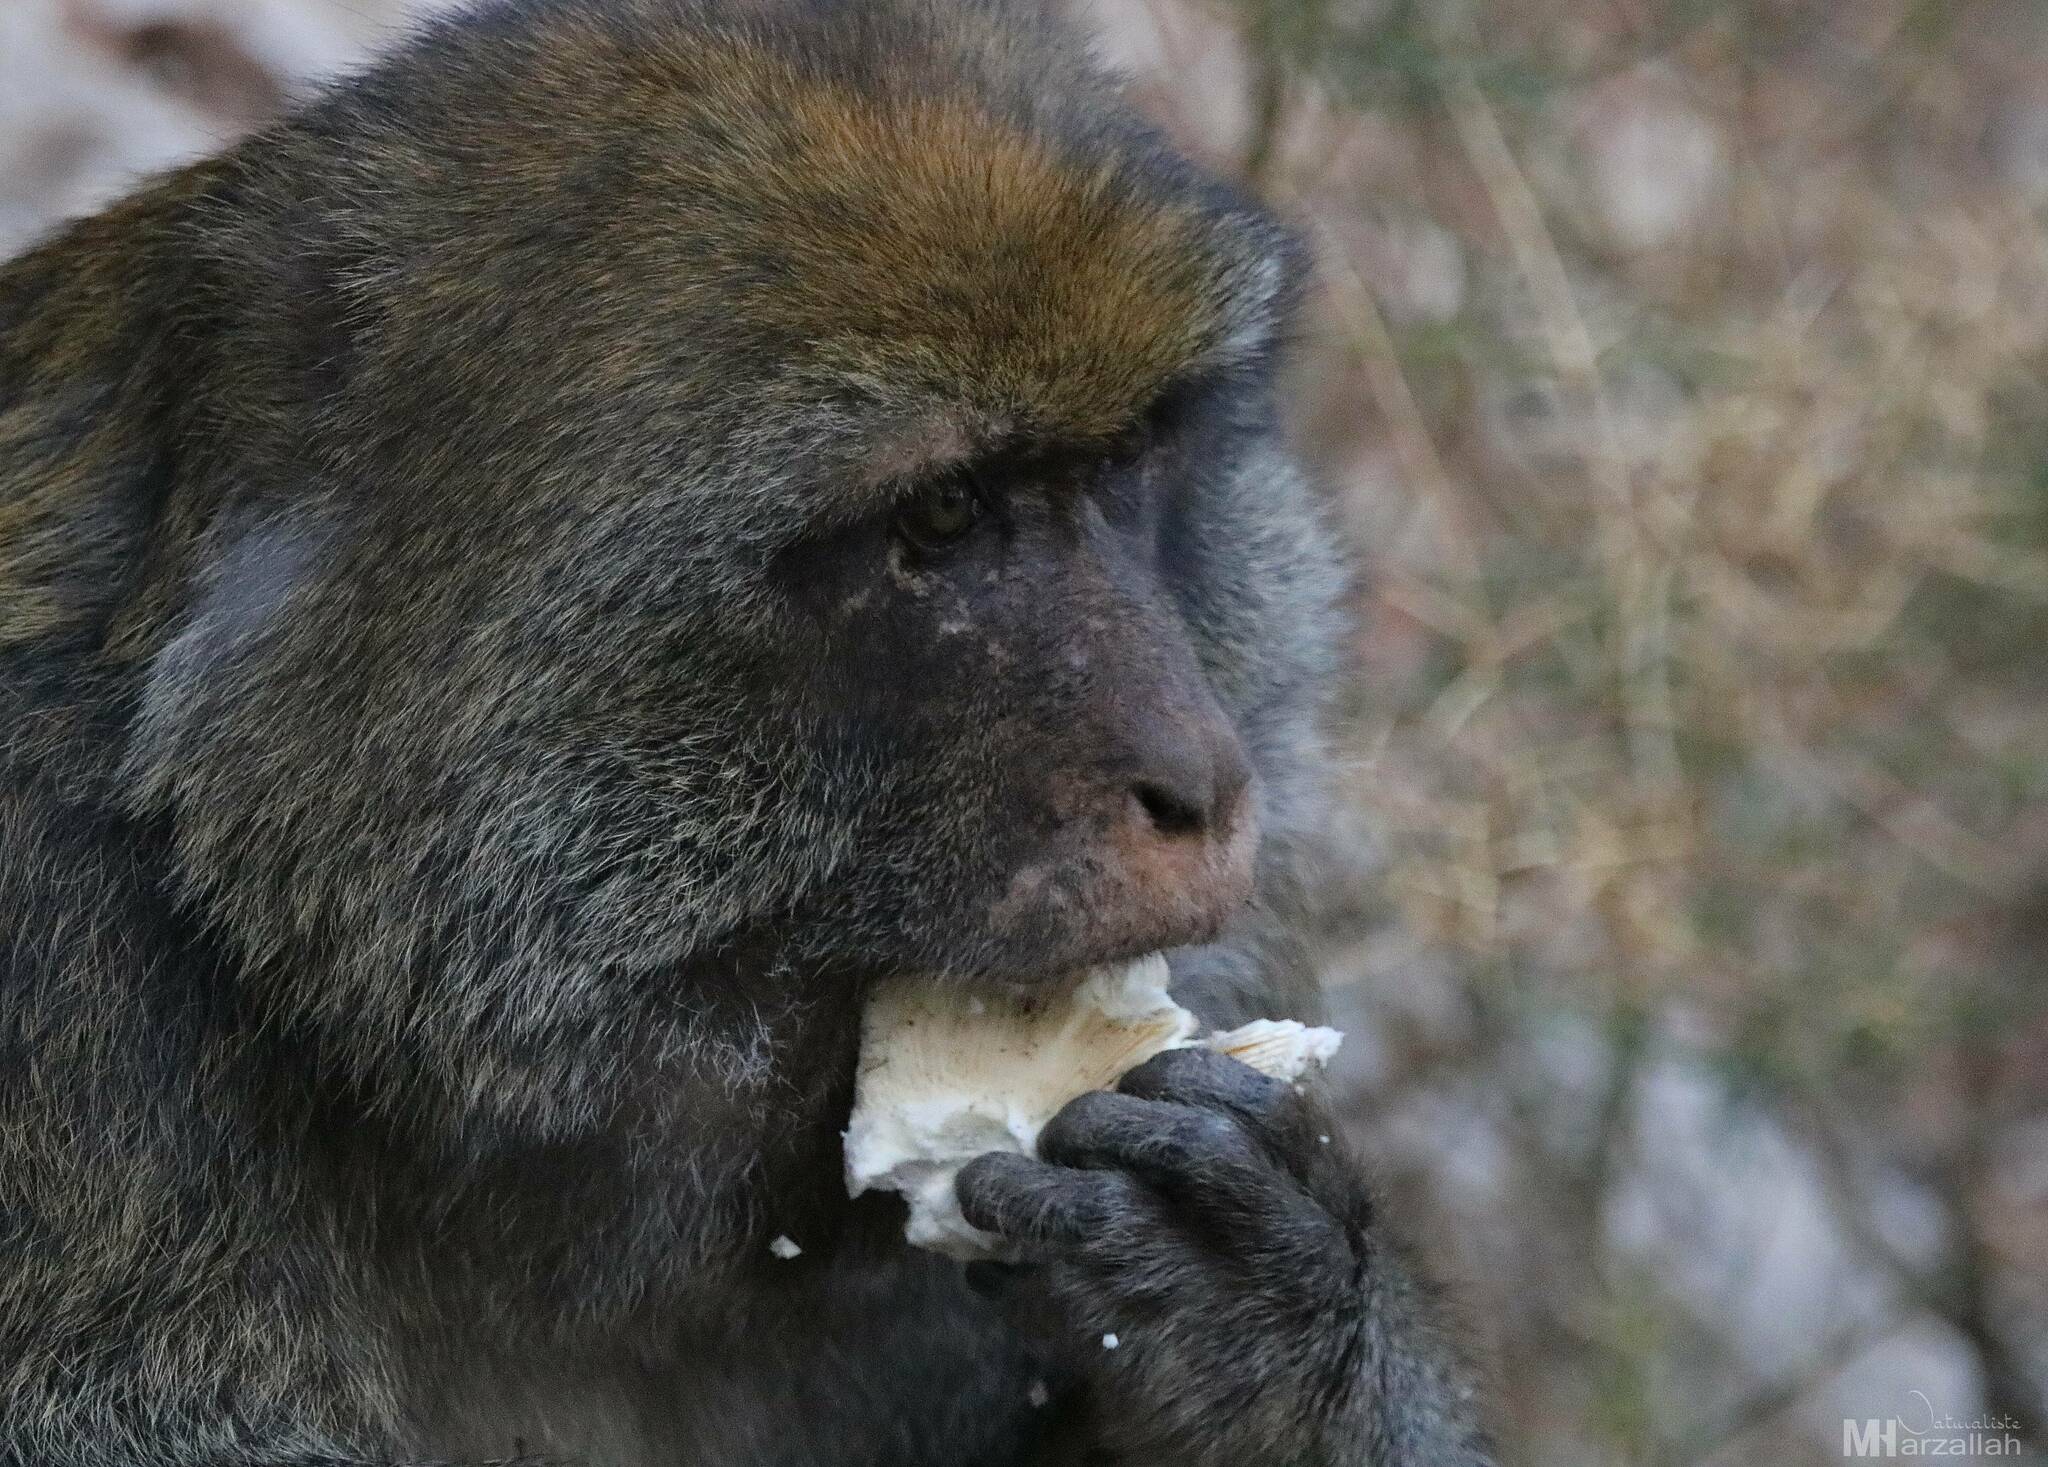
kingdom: Animalia
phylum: Chordata
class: Mammalia
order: Primates
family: Cercopithecidae
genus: Macaca
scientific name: Macaca sylvanus
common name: Barbary macaque
